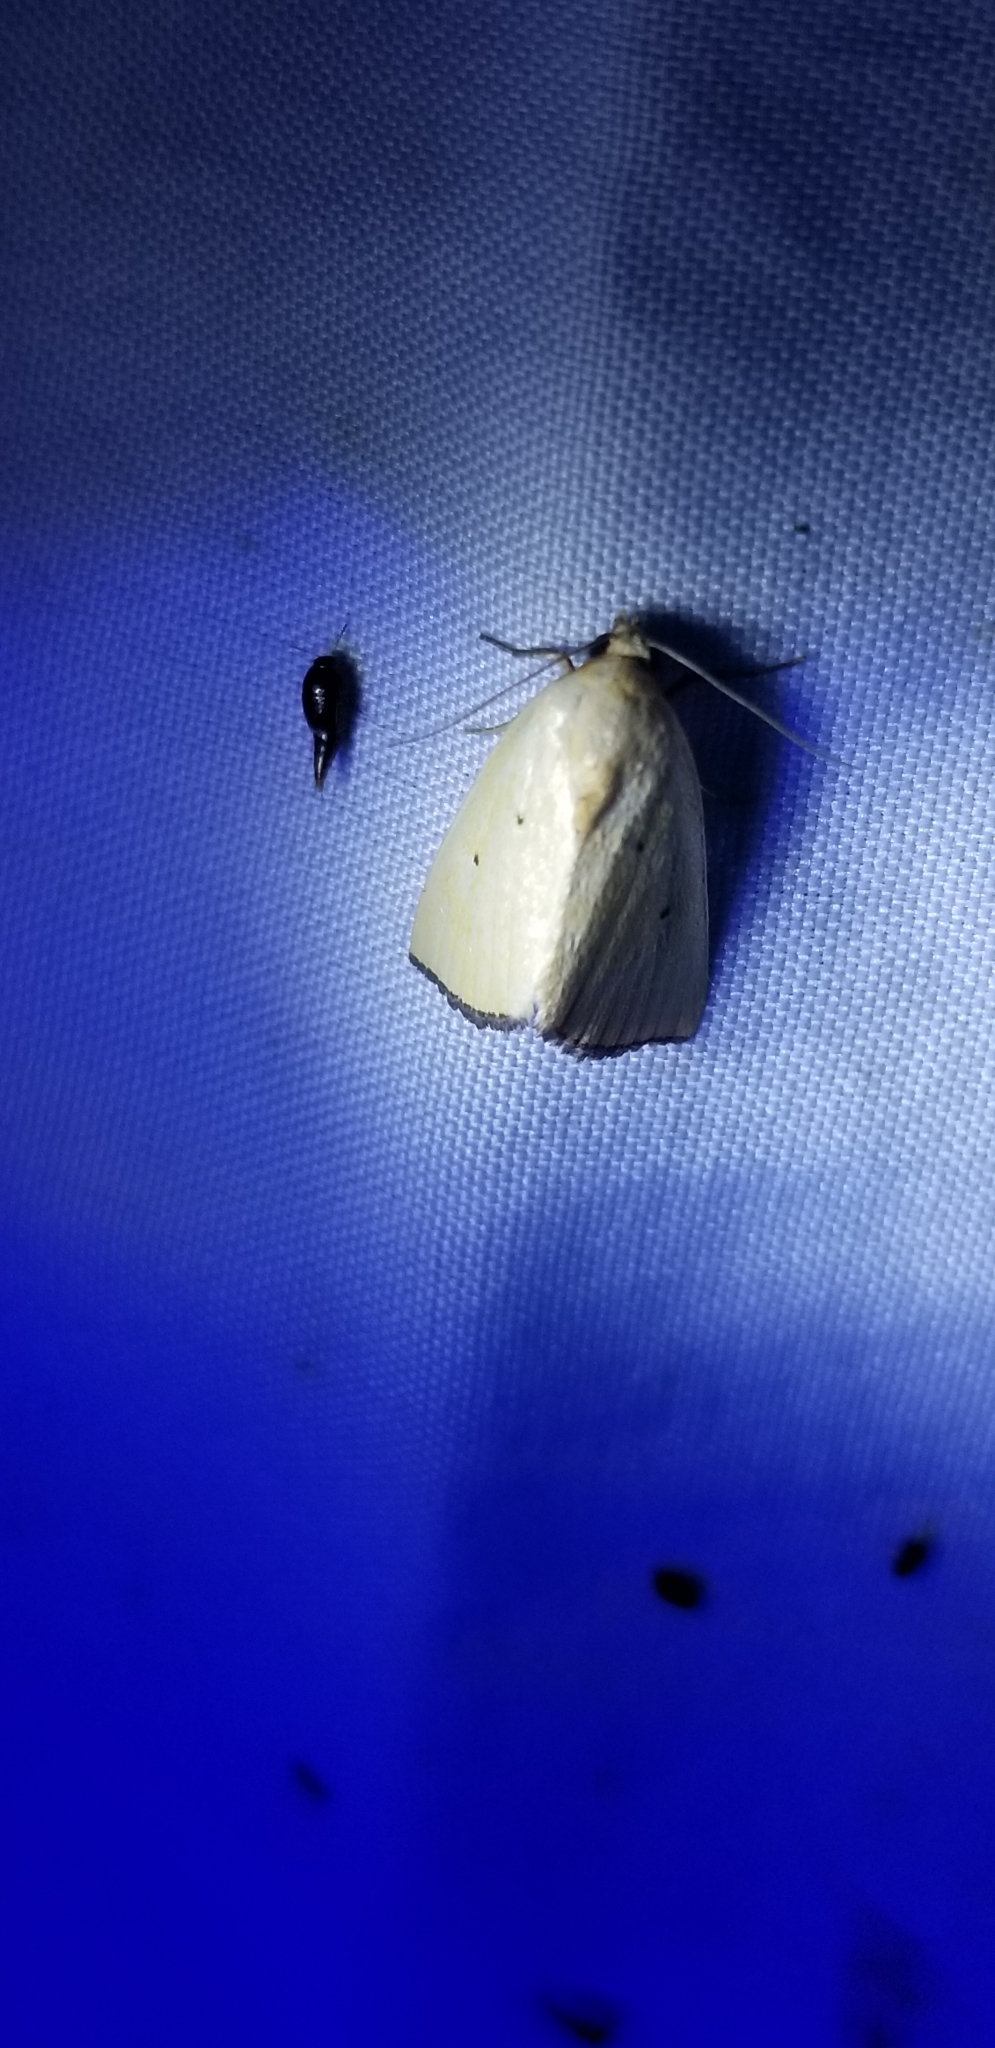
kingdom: Animalia
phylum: Arthropoda
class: Insecta
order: Lepidoptera
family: Noctuidae
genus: Marimatha
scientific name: Marimatha nigrofimbria
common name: Black-bordered lemon moth
